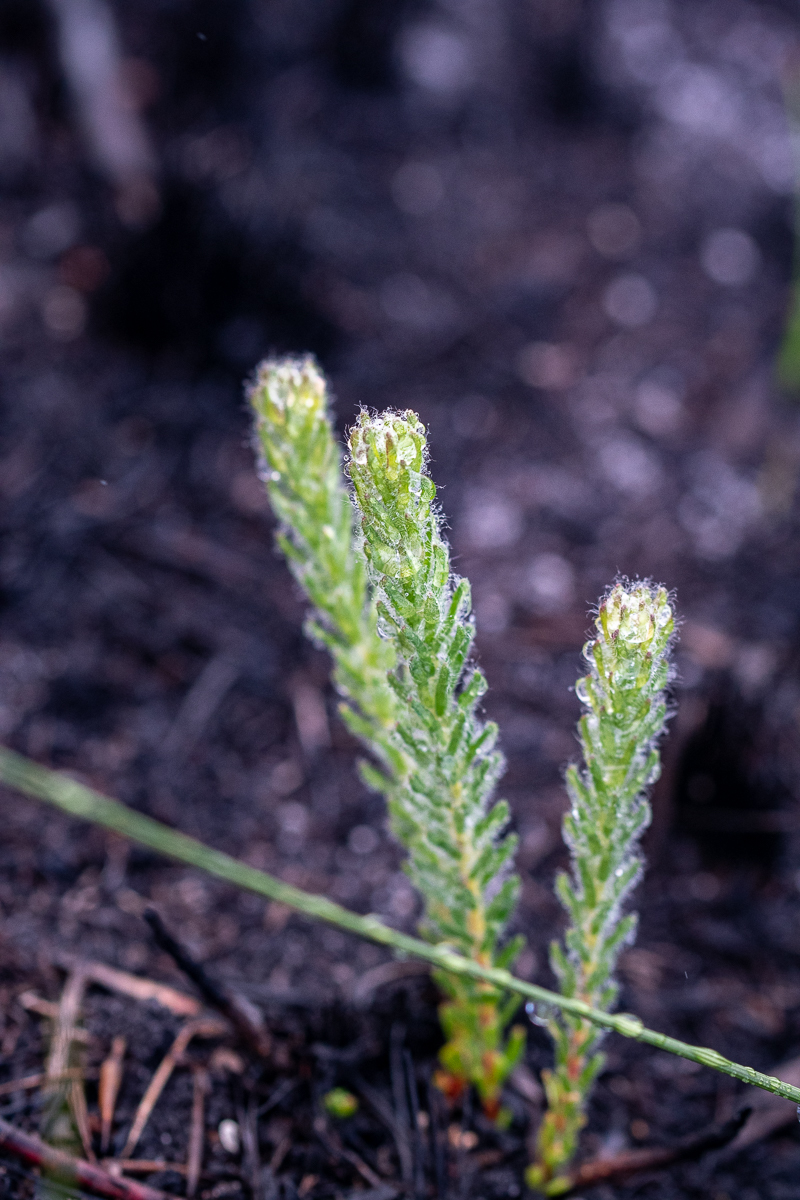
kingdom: Plantae
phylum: Tracheophyta
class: Magnoliopsida
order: Ericales
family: Ericaceae
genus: Erica
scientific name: Erica cerinthoides
